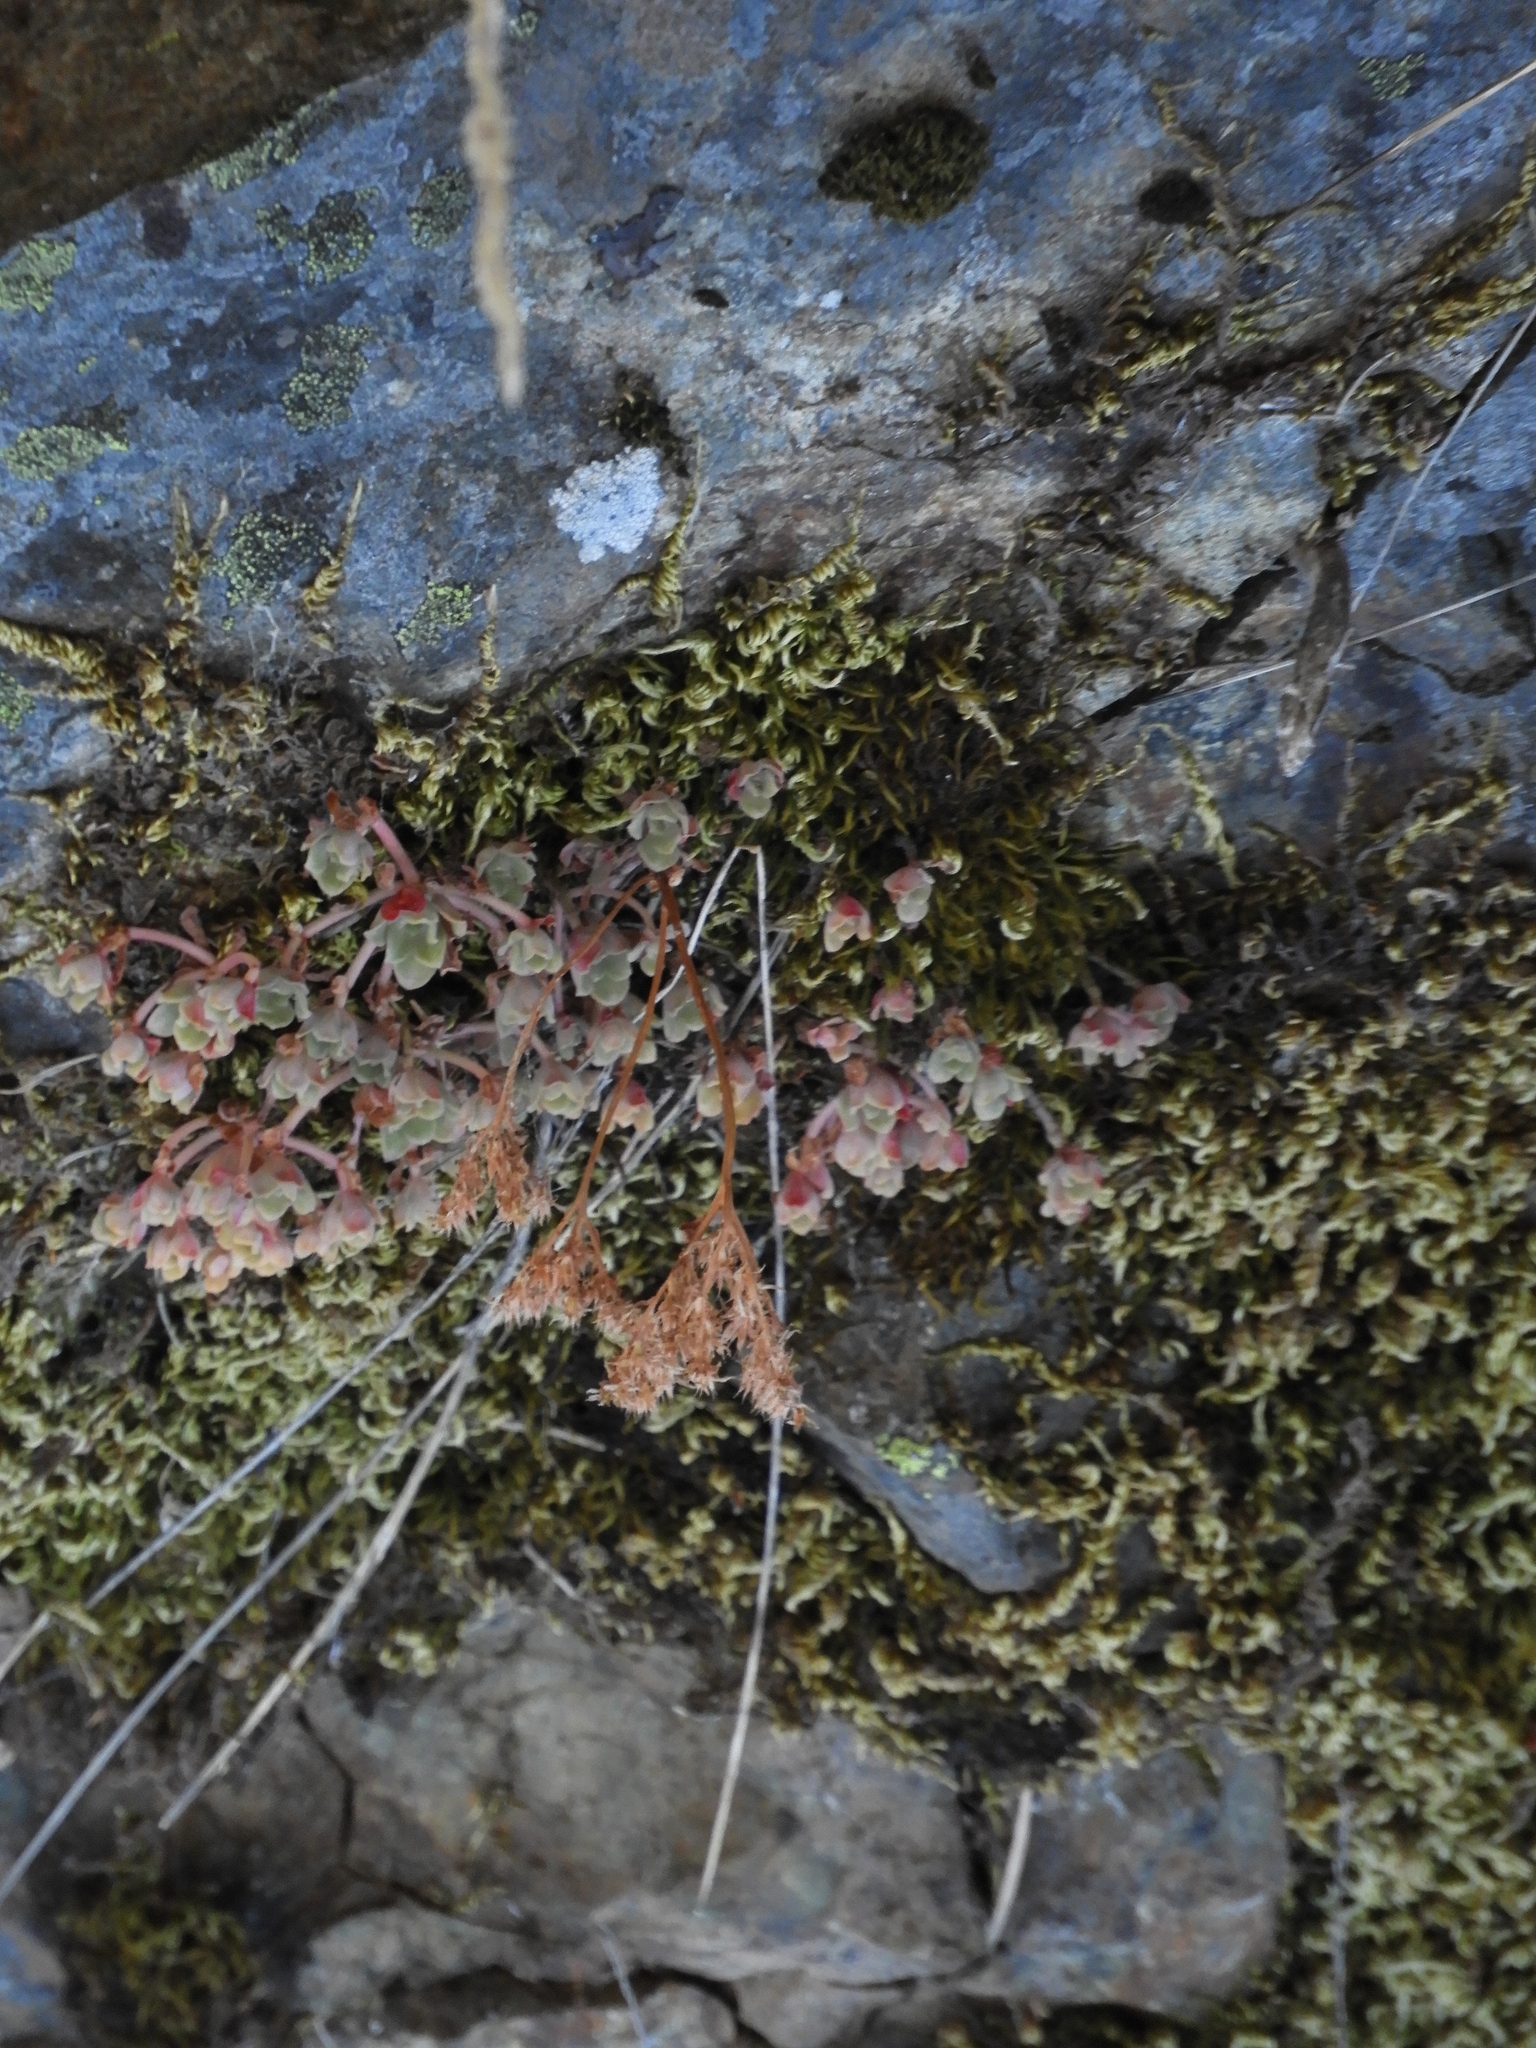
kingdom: Plantae
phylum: Tracheophyta
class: Magnoliopsida
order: Saxifragales
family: Crassulaceae
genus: Sedum
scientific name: Sedum spathulifolium
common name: Colorado stonecrop
